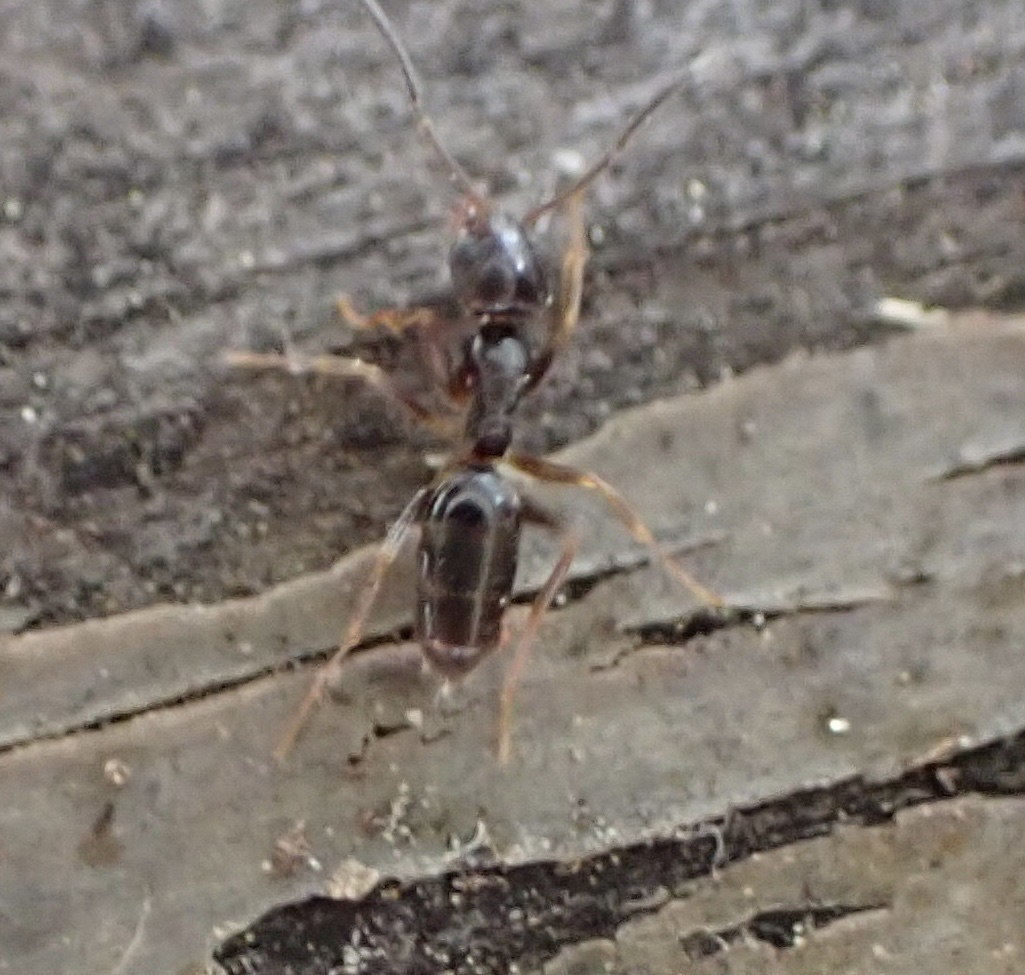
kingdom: Animalia
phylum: Arthropoda
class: Insecta
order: Hymenoptera
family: Formicidae
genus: Tapinoma
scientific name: Tapinoma sessile
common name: Odorous house ant
